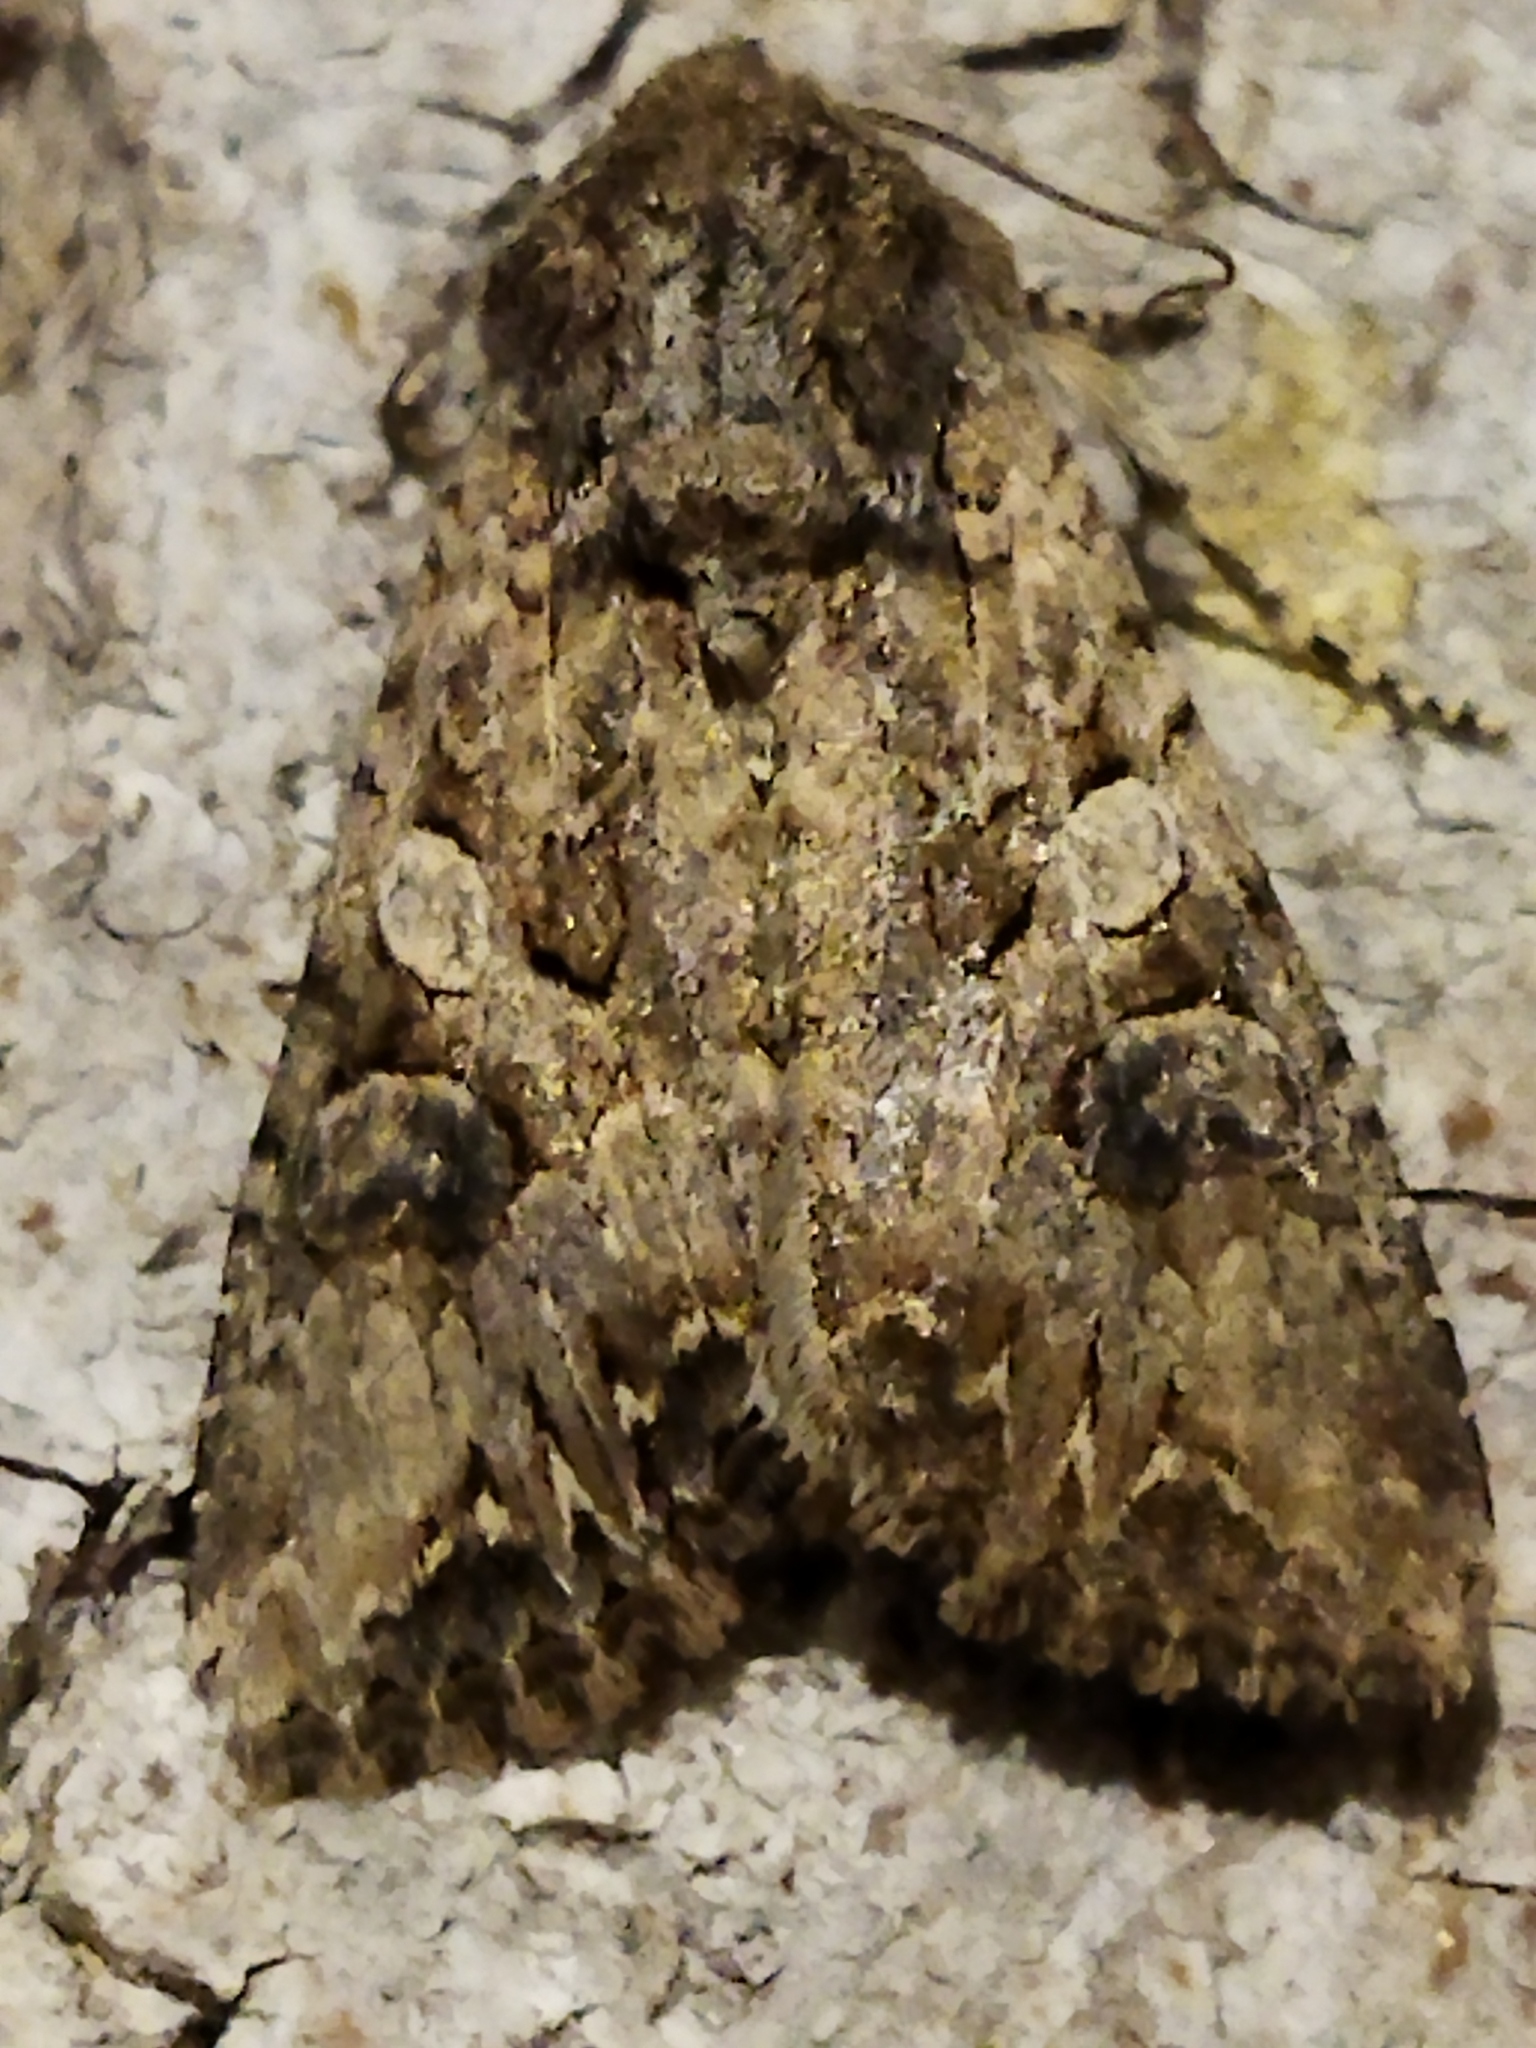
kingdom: Animalia
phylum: Arthropoda
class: Insecta
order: Lepidoptera
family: Noctuidae
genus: Anarta
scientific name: Anarta trifolii
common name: Clover cutworm moth
